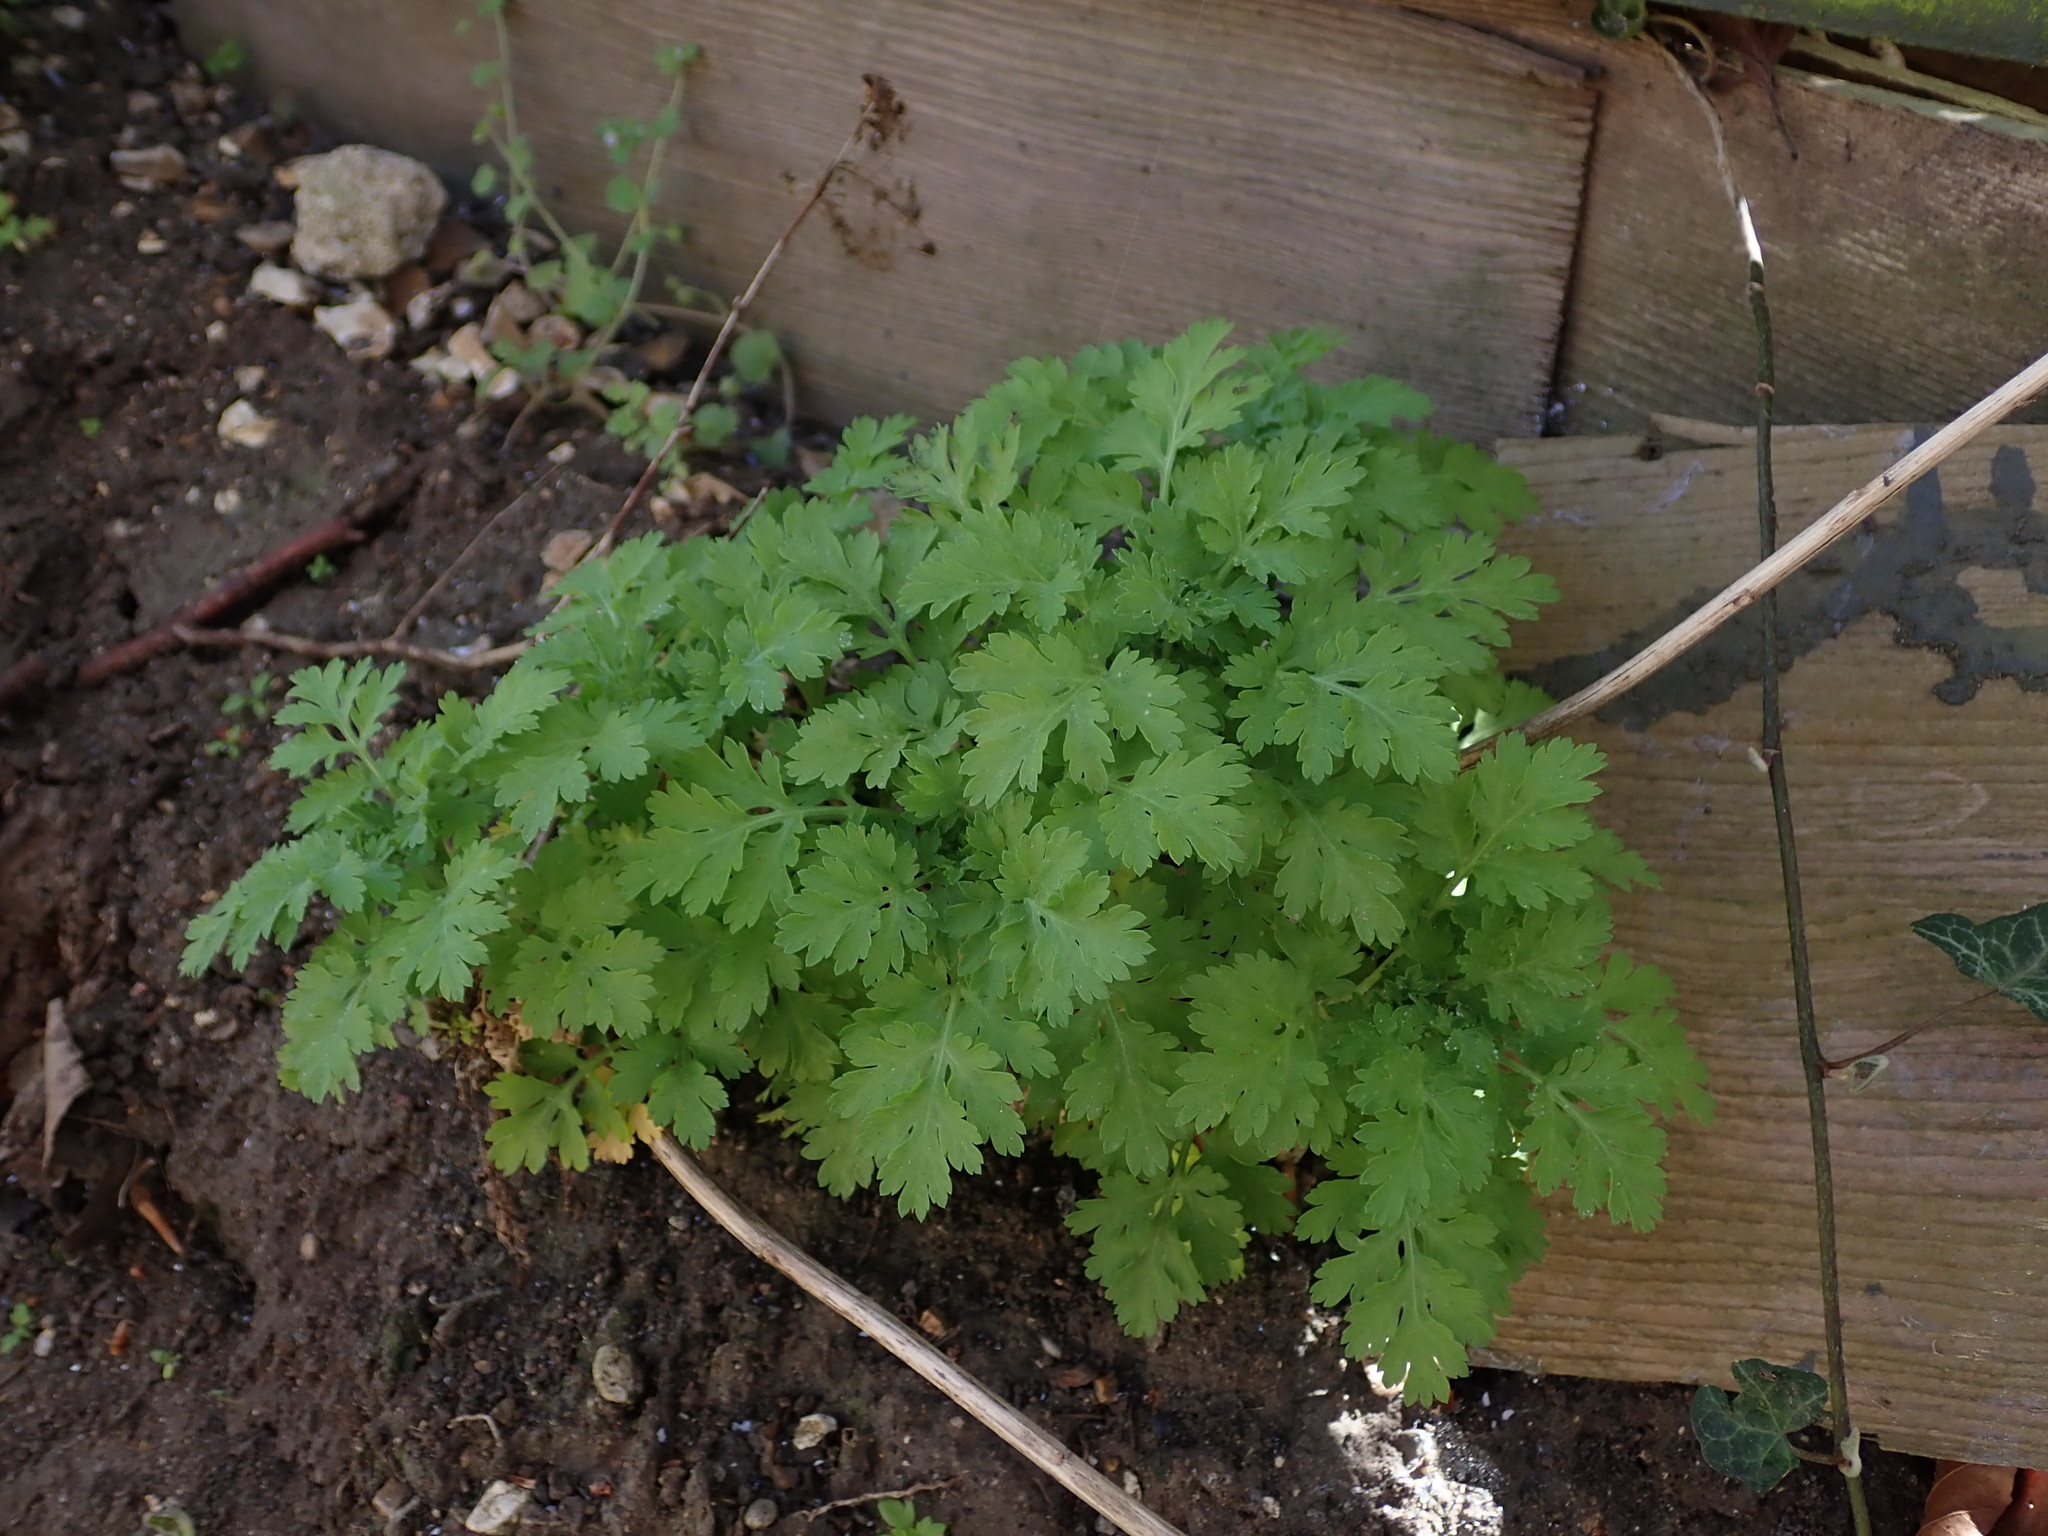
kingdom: Plantae
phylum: Tracheophyta
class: Magnoliopsida
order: Asterales
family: Asteraceae
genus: Tanacetum
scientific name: Tanacetum parthenium
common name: Feverfew
